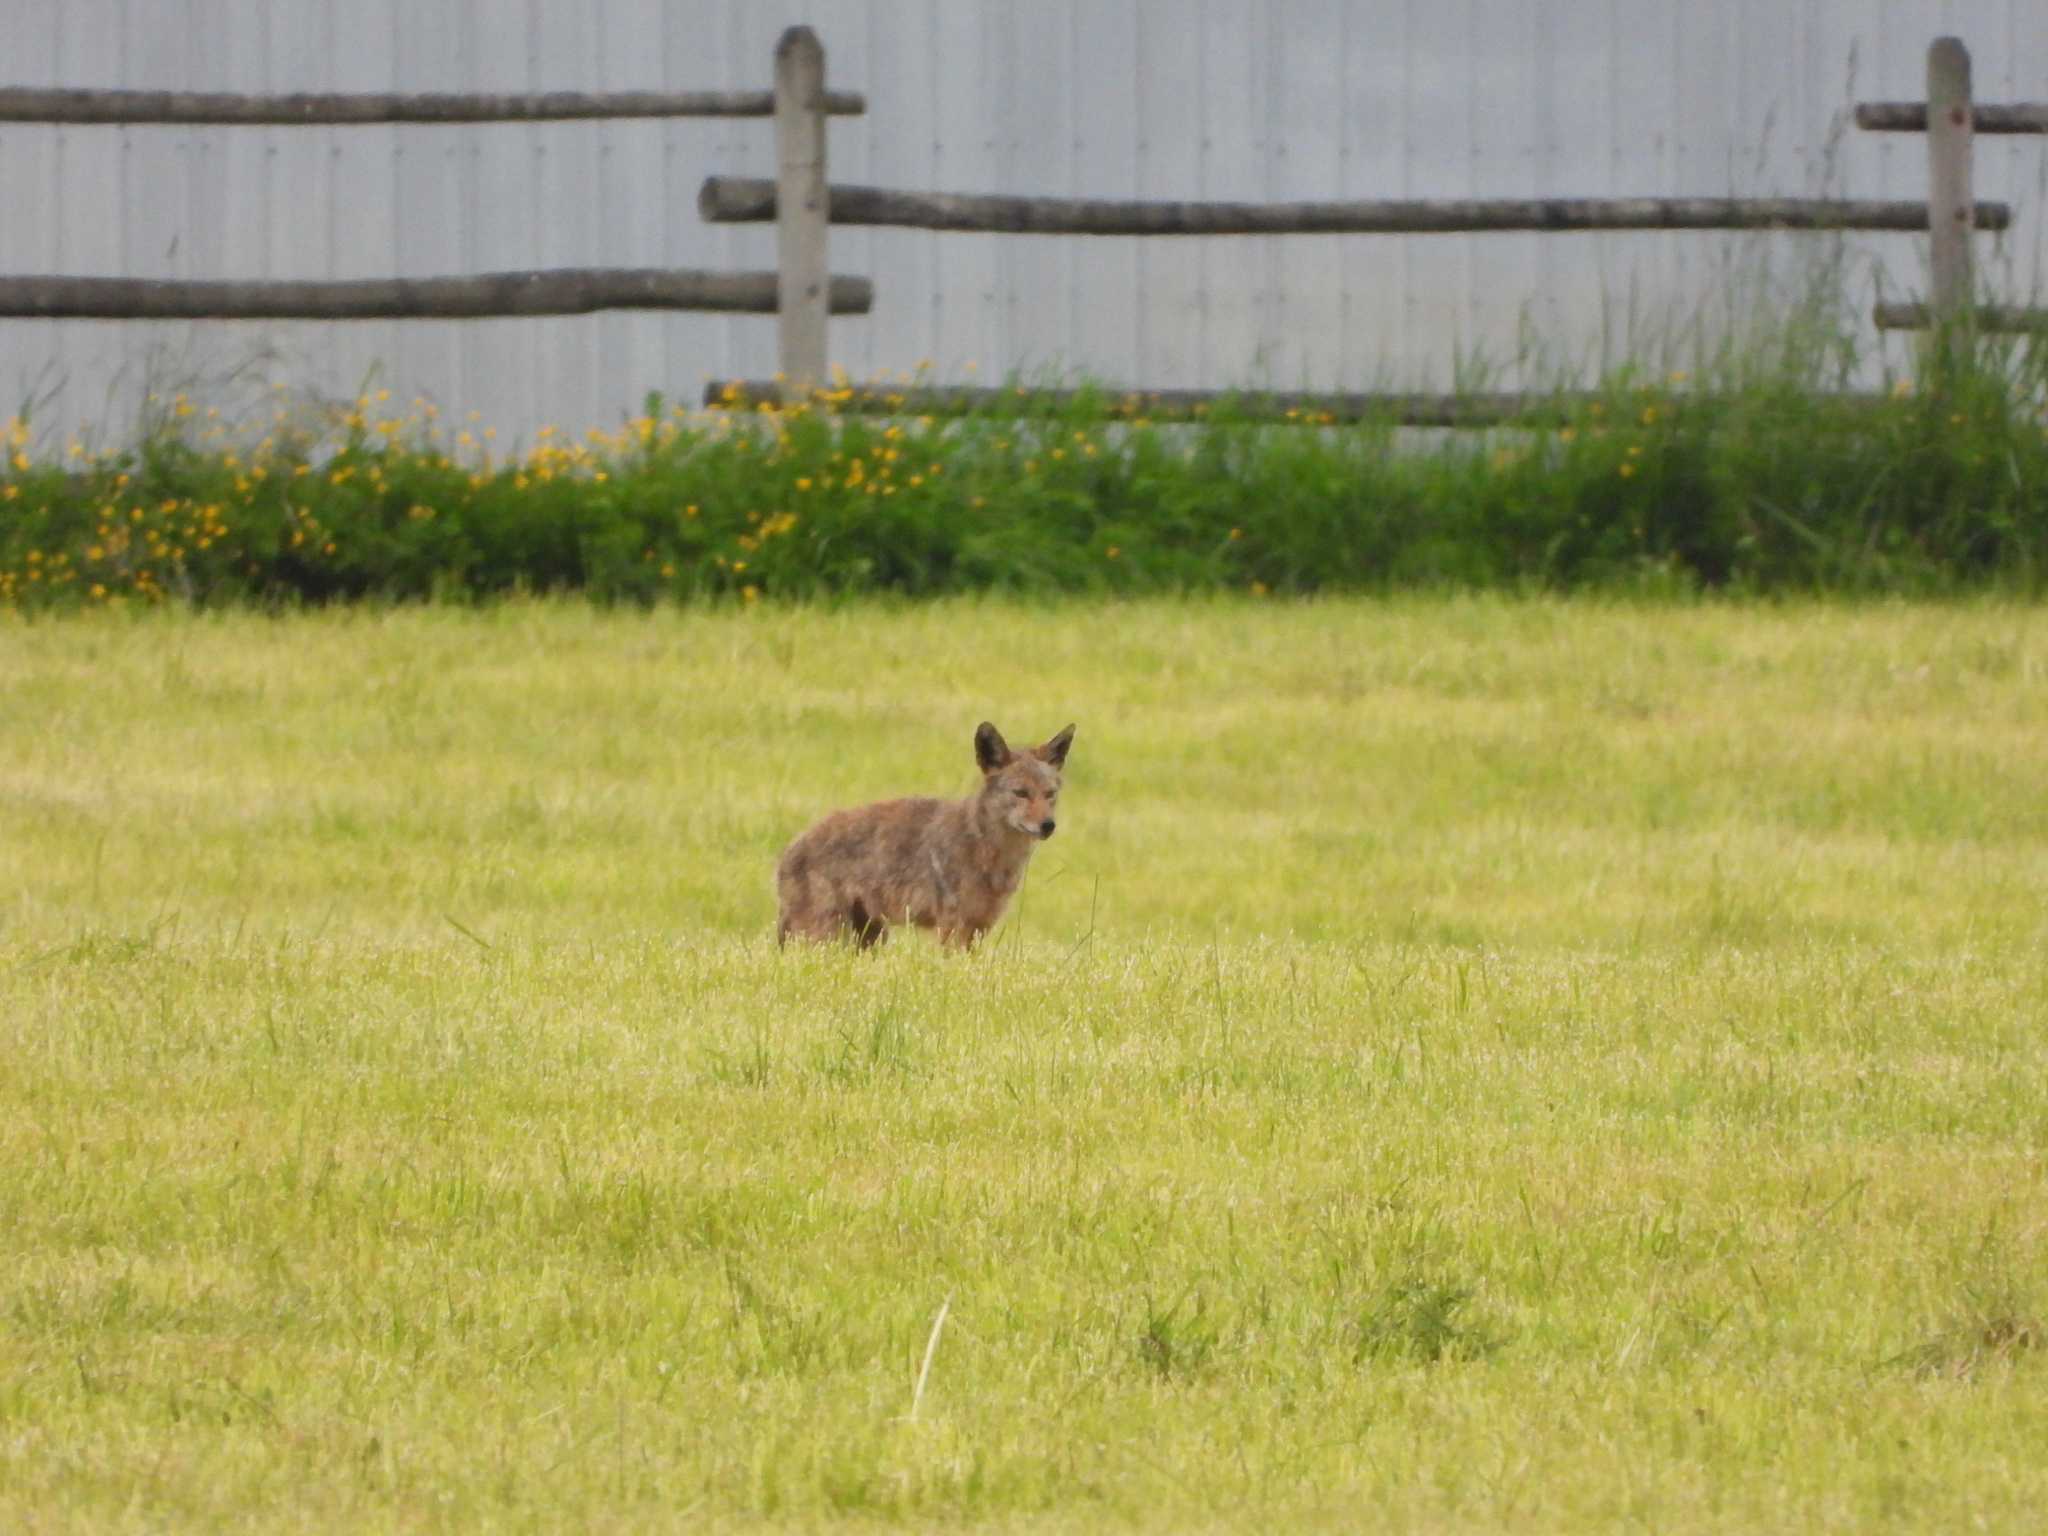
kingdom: Animalia
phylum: Chordata
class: Mammalia
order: Carnivora
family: Canidae
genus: Canis
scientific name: Canis latrans
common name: Coyote
